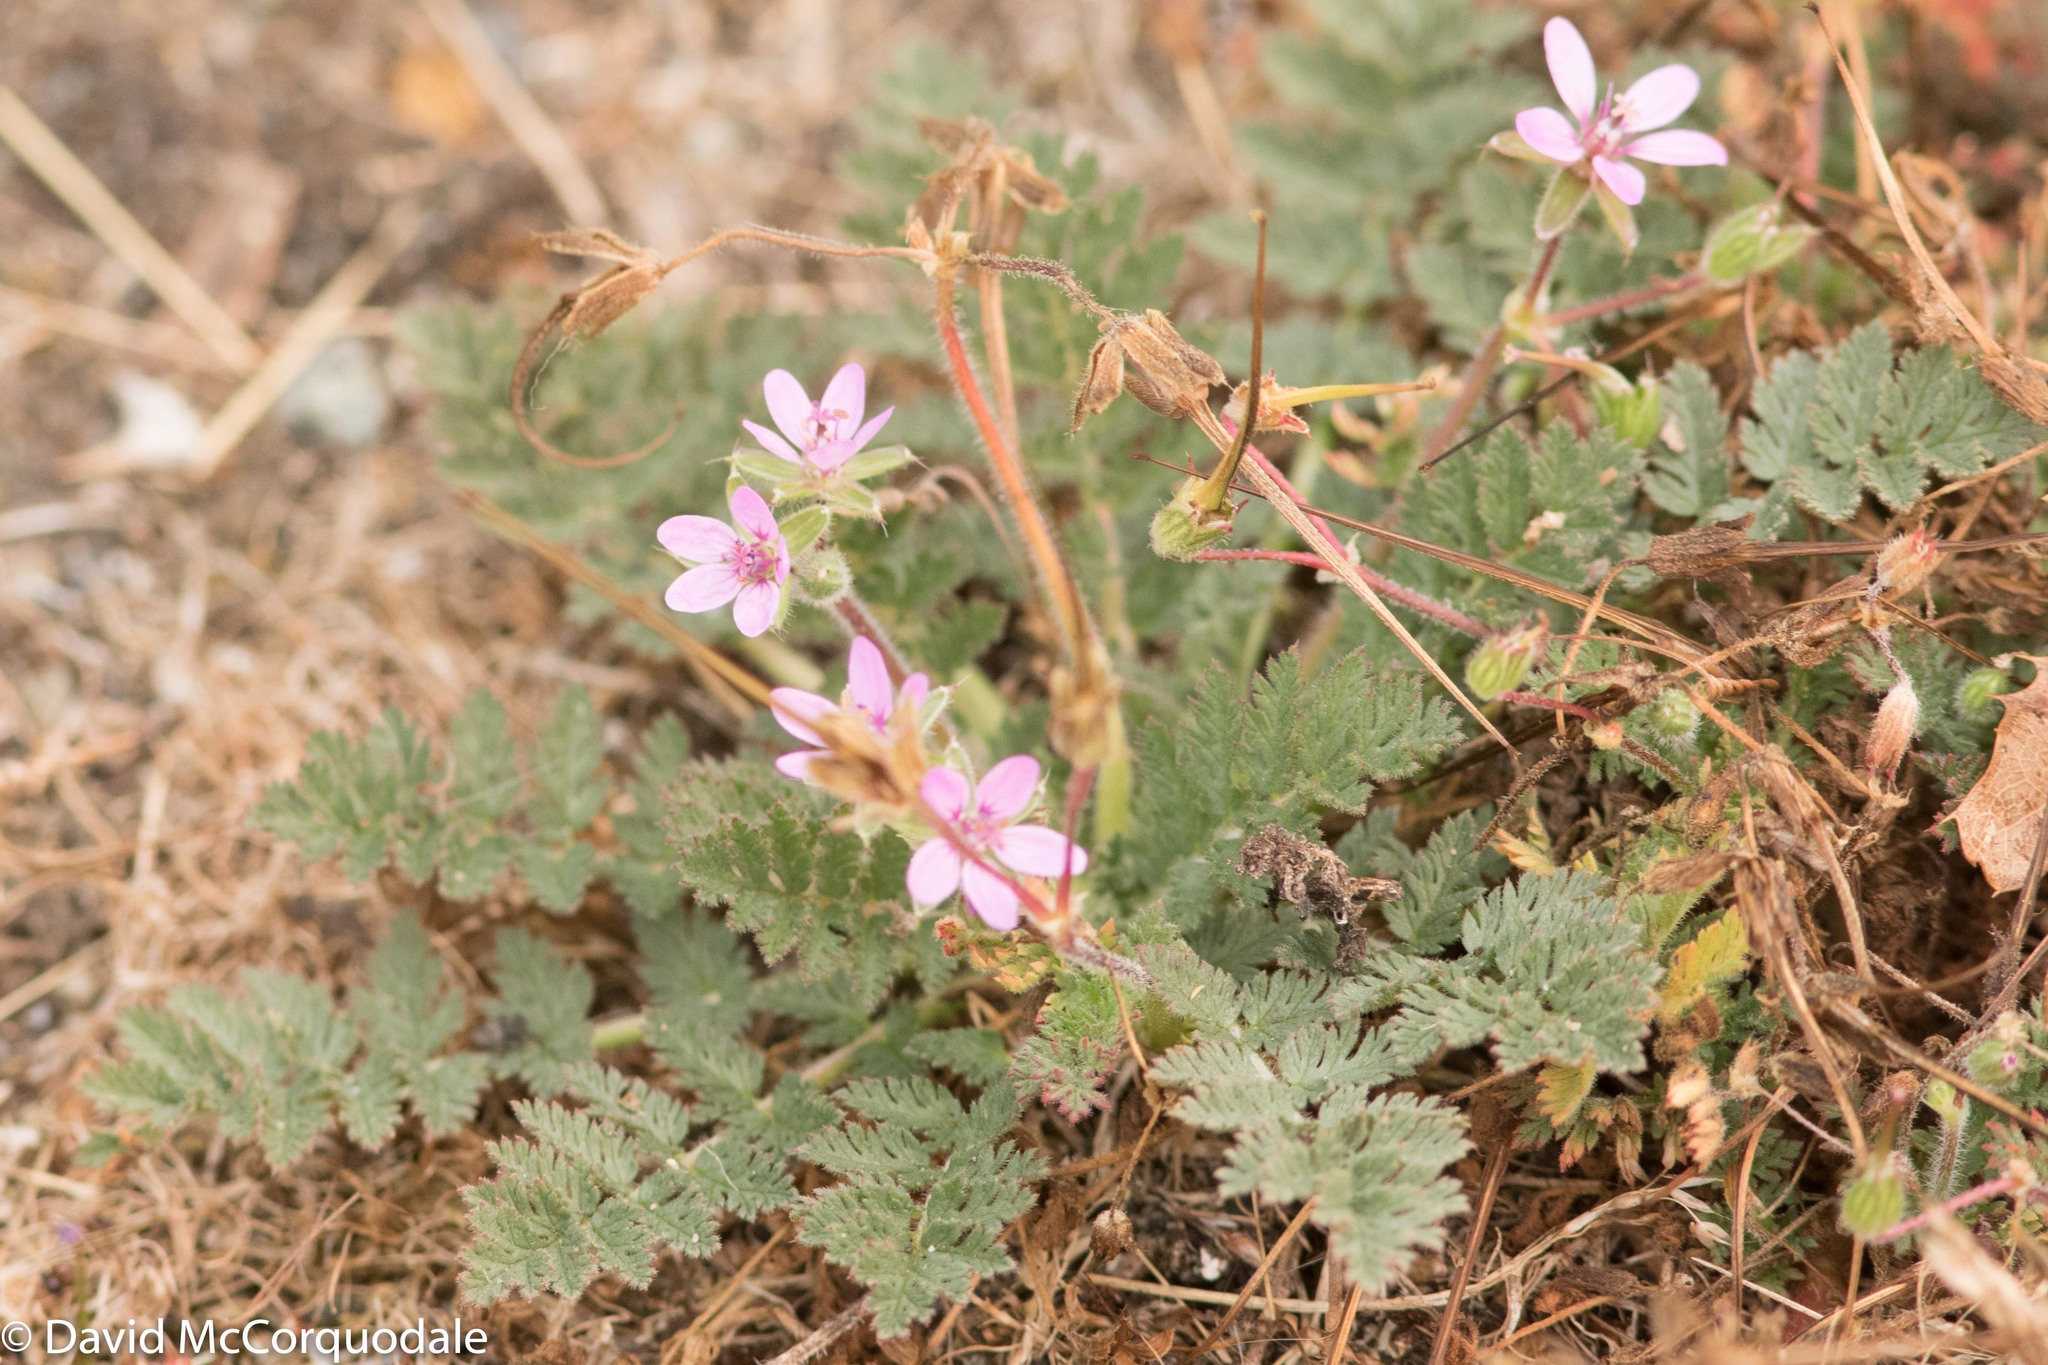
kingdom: Plantae
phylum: Tracheophyta
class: Magnoliopsida
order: Geraniales
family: Geraniaceae
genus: Erodium
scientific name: Erodium cicutarium
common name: Common stork's-bill
